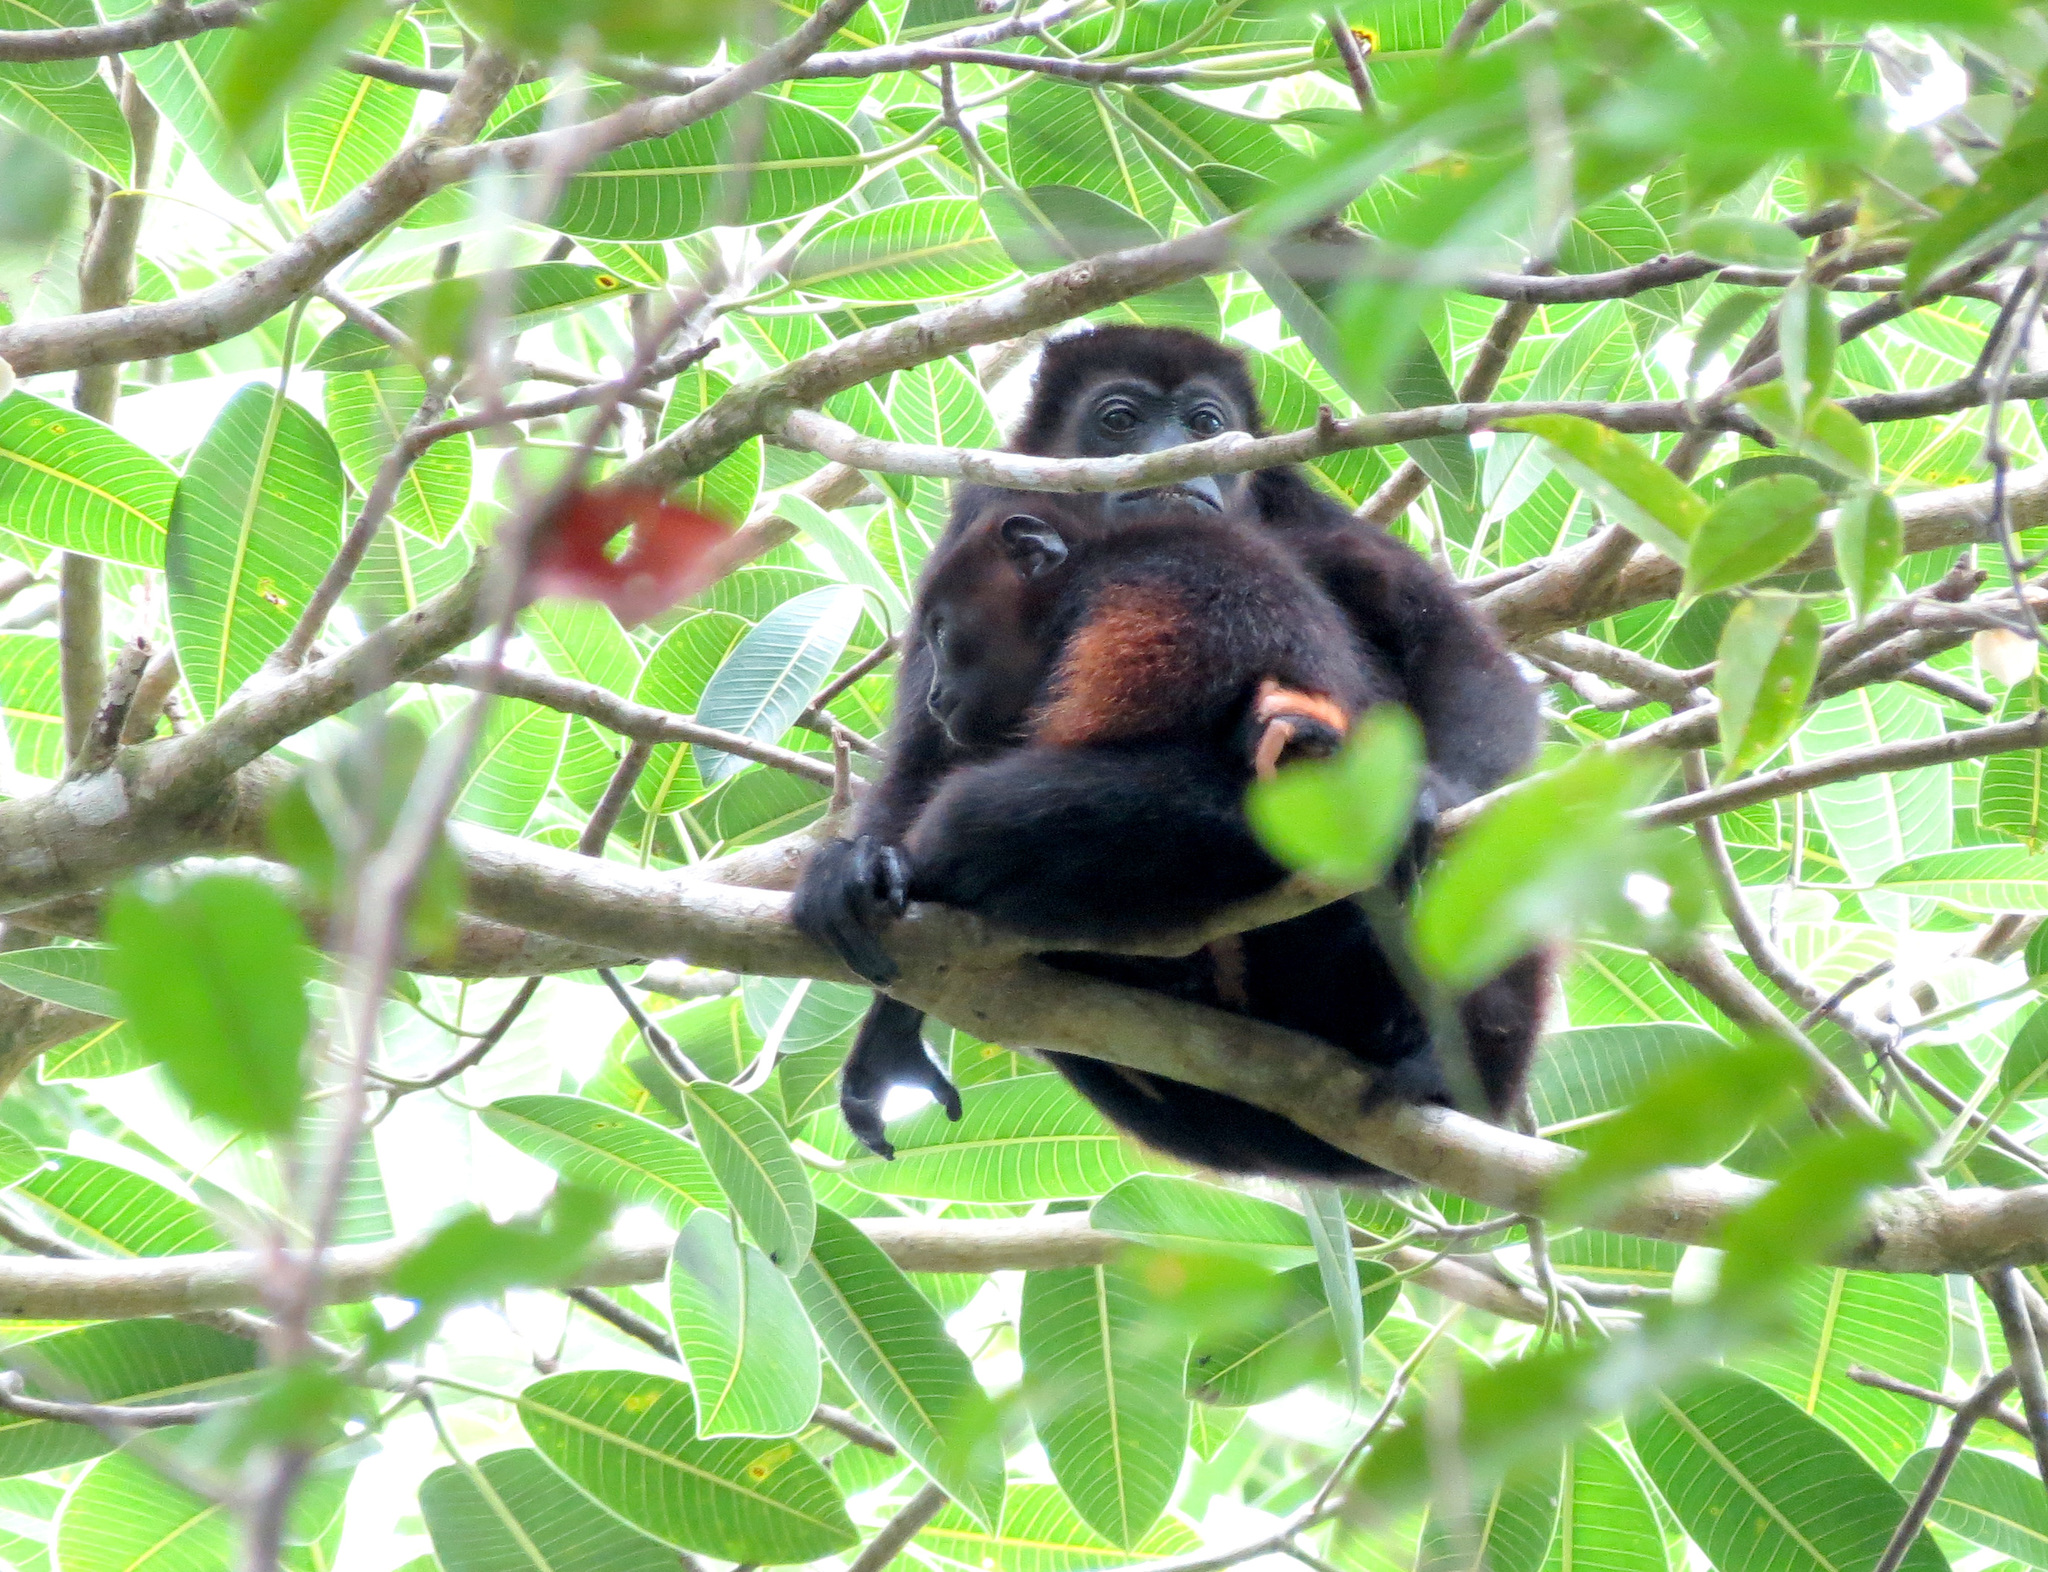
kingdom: Animalia
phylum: Chordata
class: Mammalia
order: Primates
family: Atelidae
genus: Alouatta
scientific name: Alouatta palliata
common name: Mantled howler
